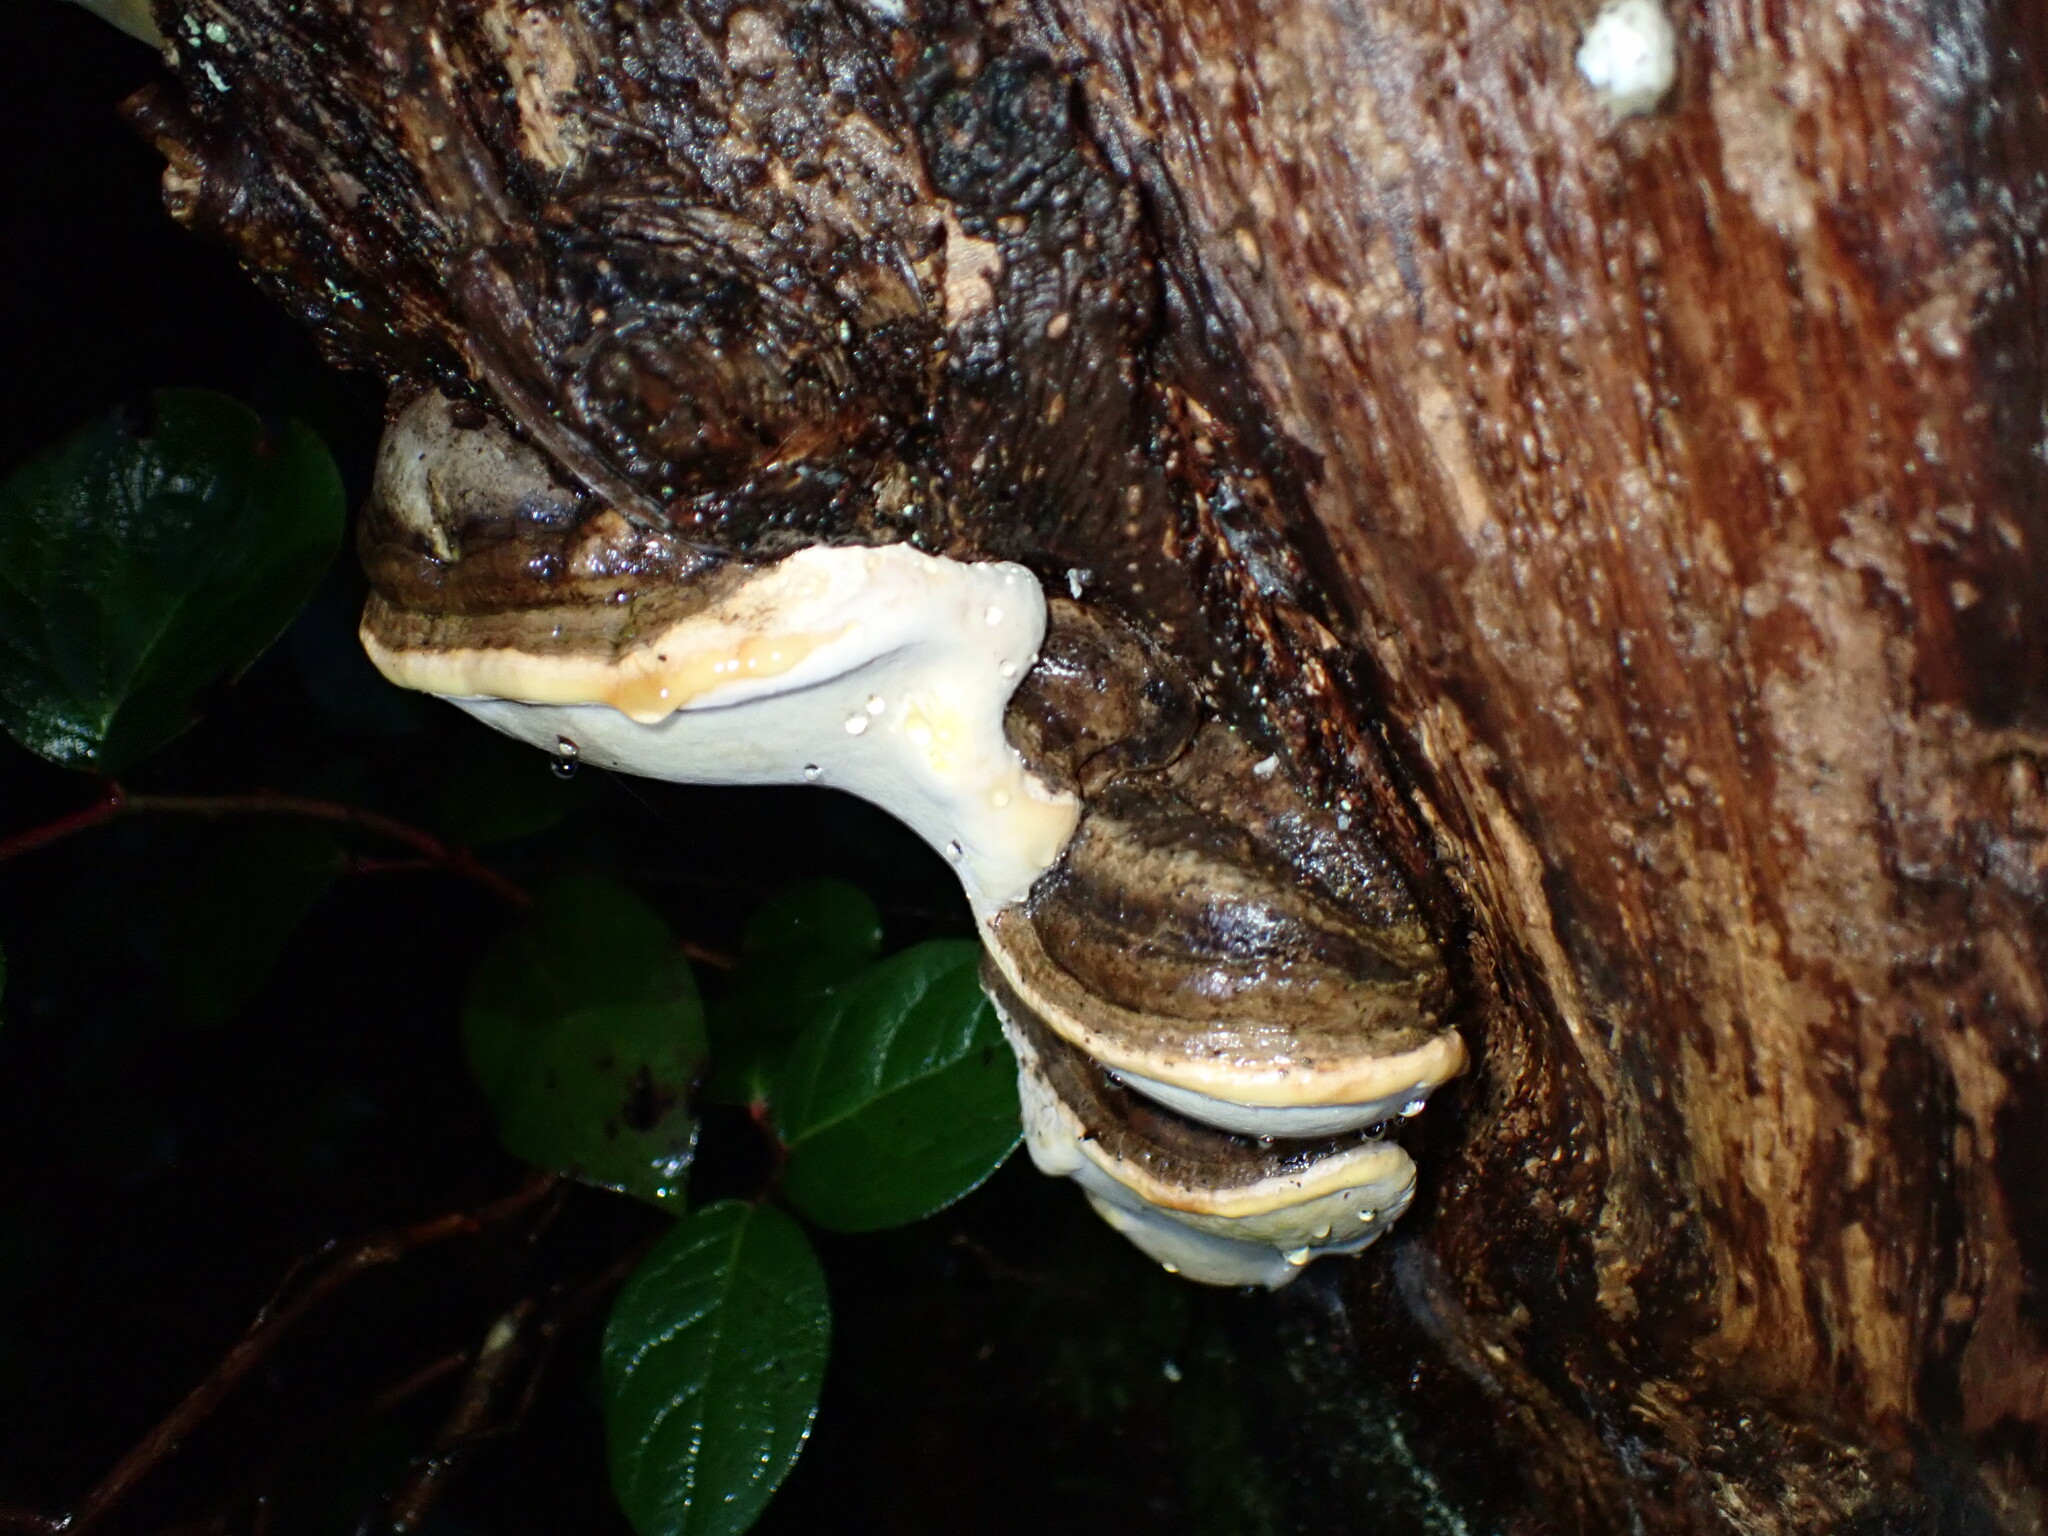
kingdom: Fungi
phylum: Basidiomycota
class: Agaricomycetes
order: Polyporales
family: Fomitopsidaceae
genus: Fomitopsis
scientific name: Fomitopsis ochracea
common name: American brown fomitopsis
